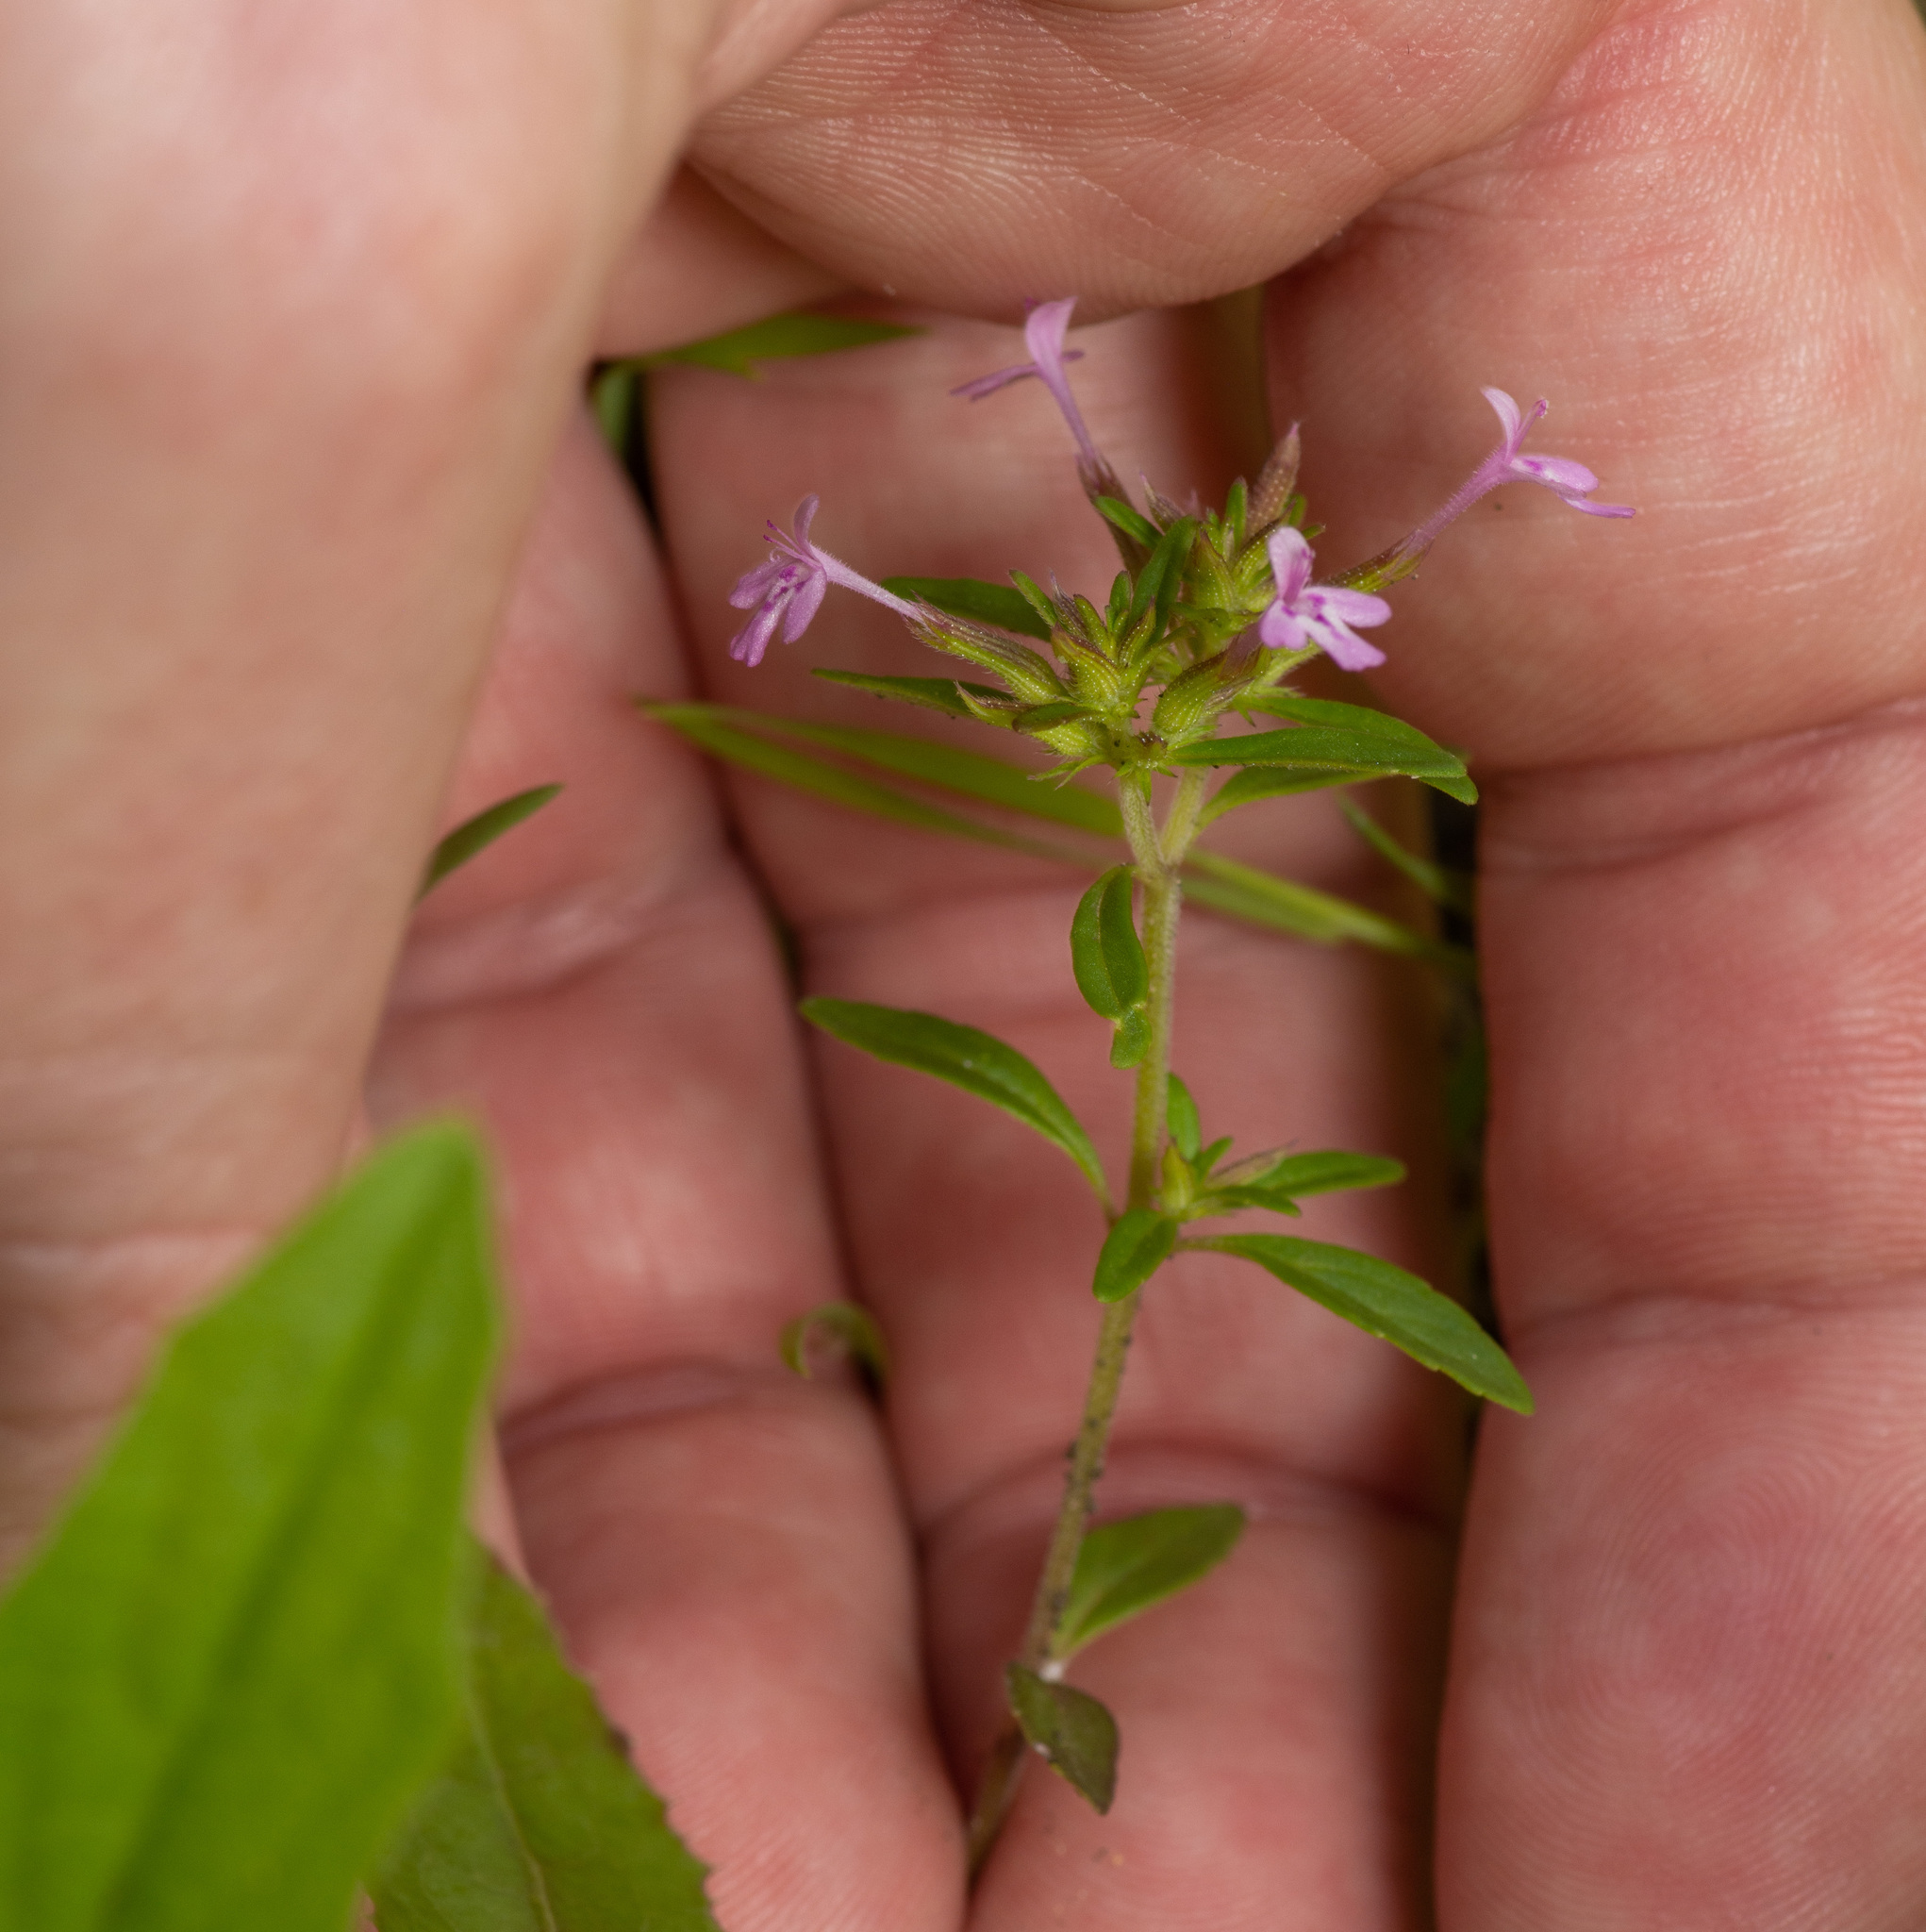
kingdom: Plantae
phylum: Tracheophyta
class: Magnoliopsida
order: Lamiales
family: Lamiaceae
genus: Hedeoma
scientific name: Hedeoma acinoides
